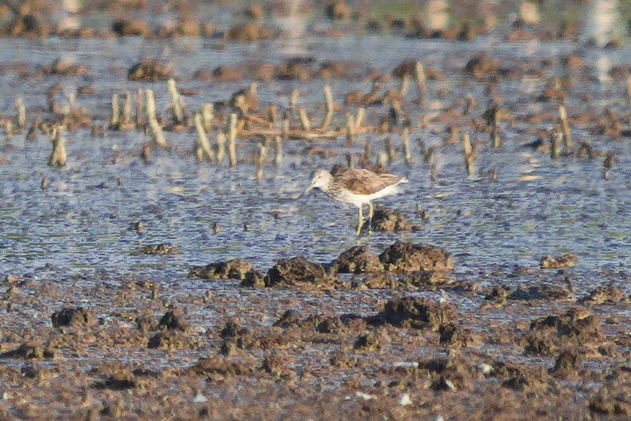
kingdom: Animalia
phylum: Chordata
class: Aves
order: Charadriiformes
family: Scolopacidae
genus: Tringa
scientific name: Tringa nebularia
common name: Common greenshank
